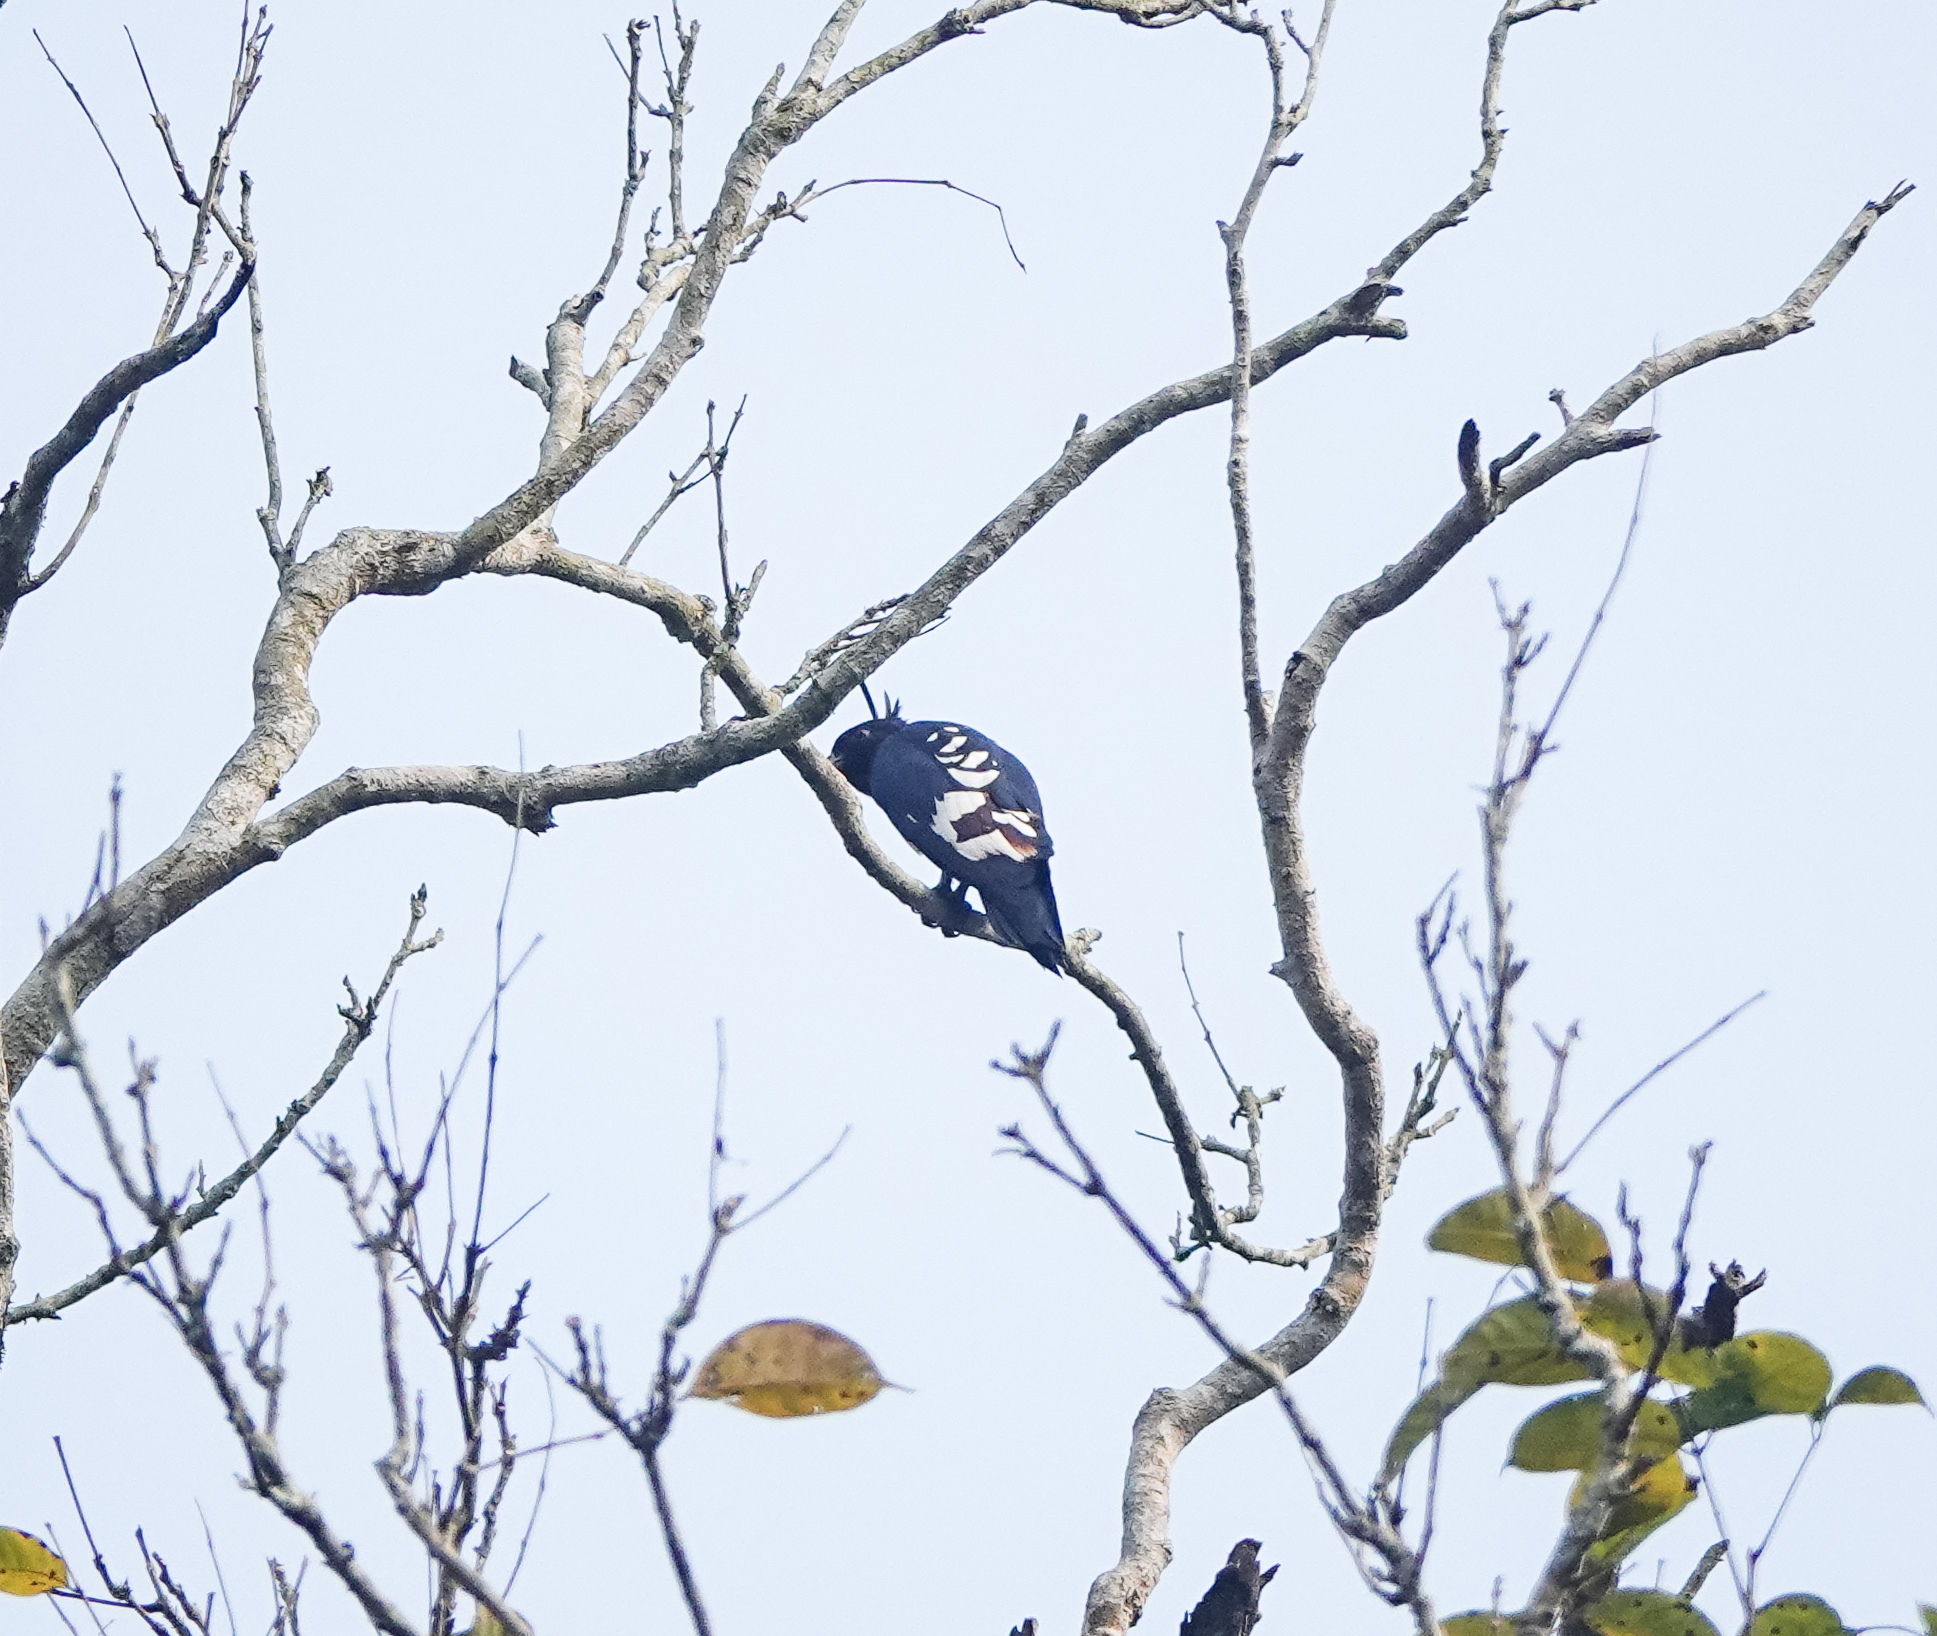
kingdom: Animalia
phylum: Chordata
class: Aves
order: Accipitriformes
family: Accipitridae
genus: Aviceda
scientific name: Aviceda leuphotes
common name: Black baza
